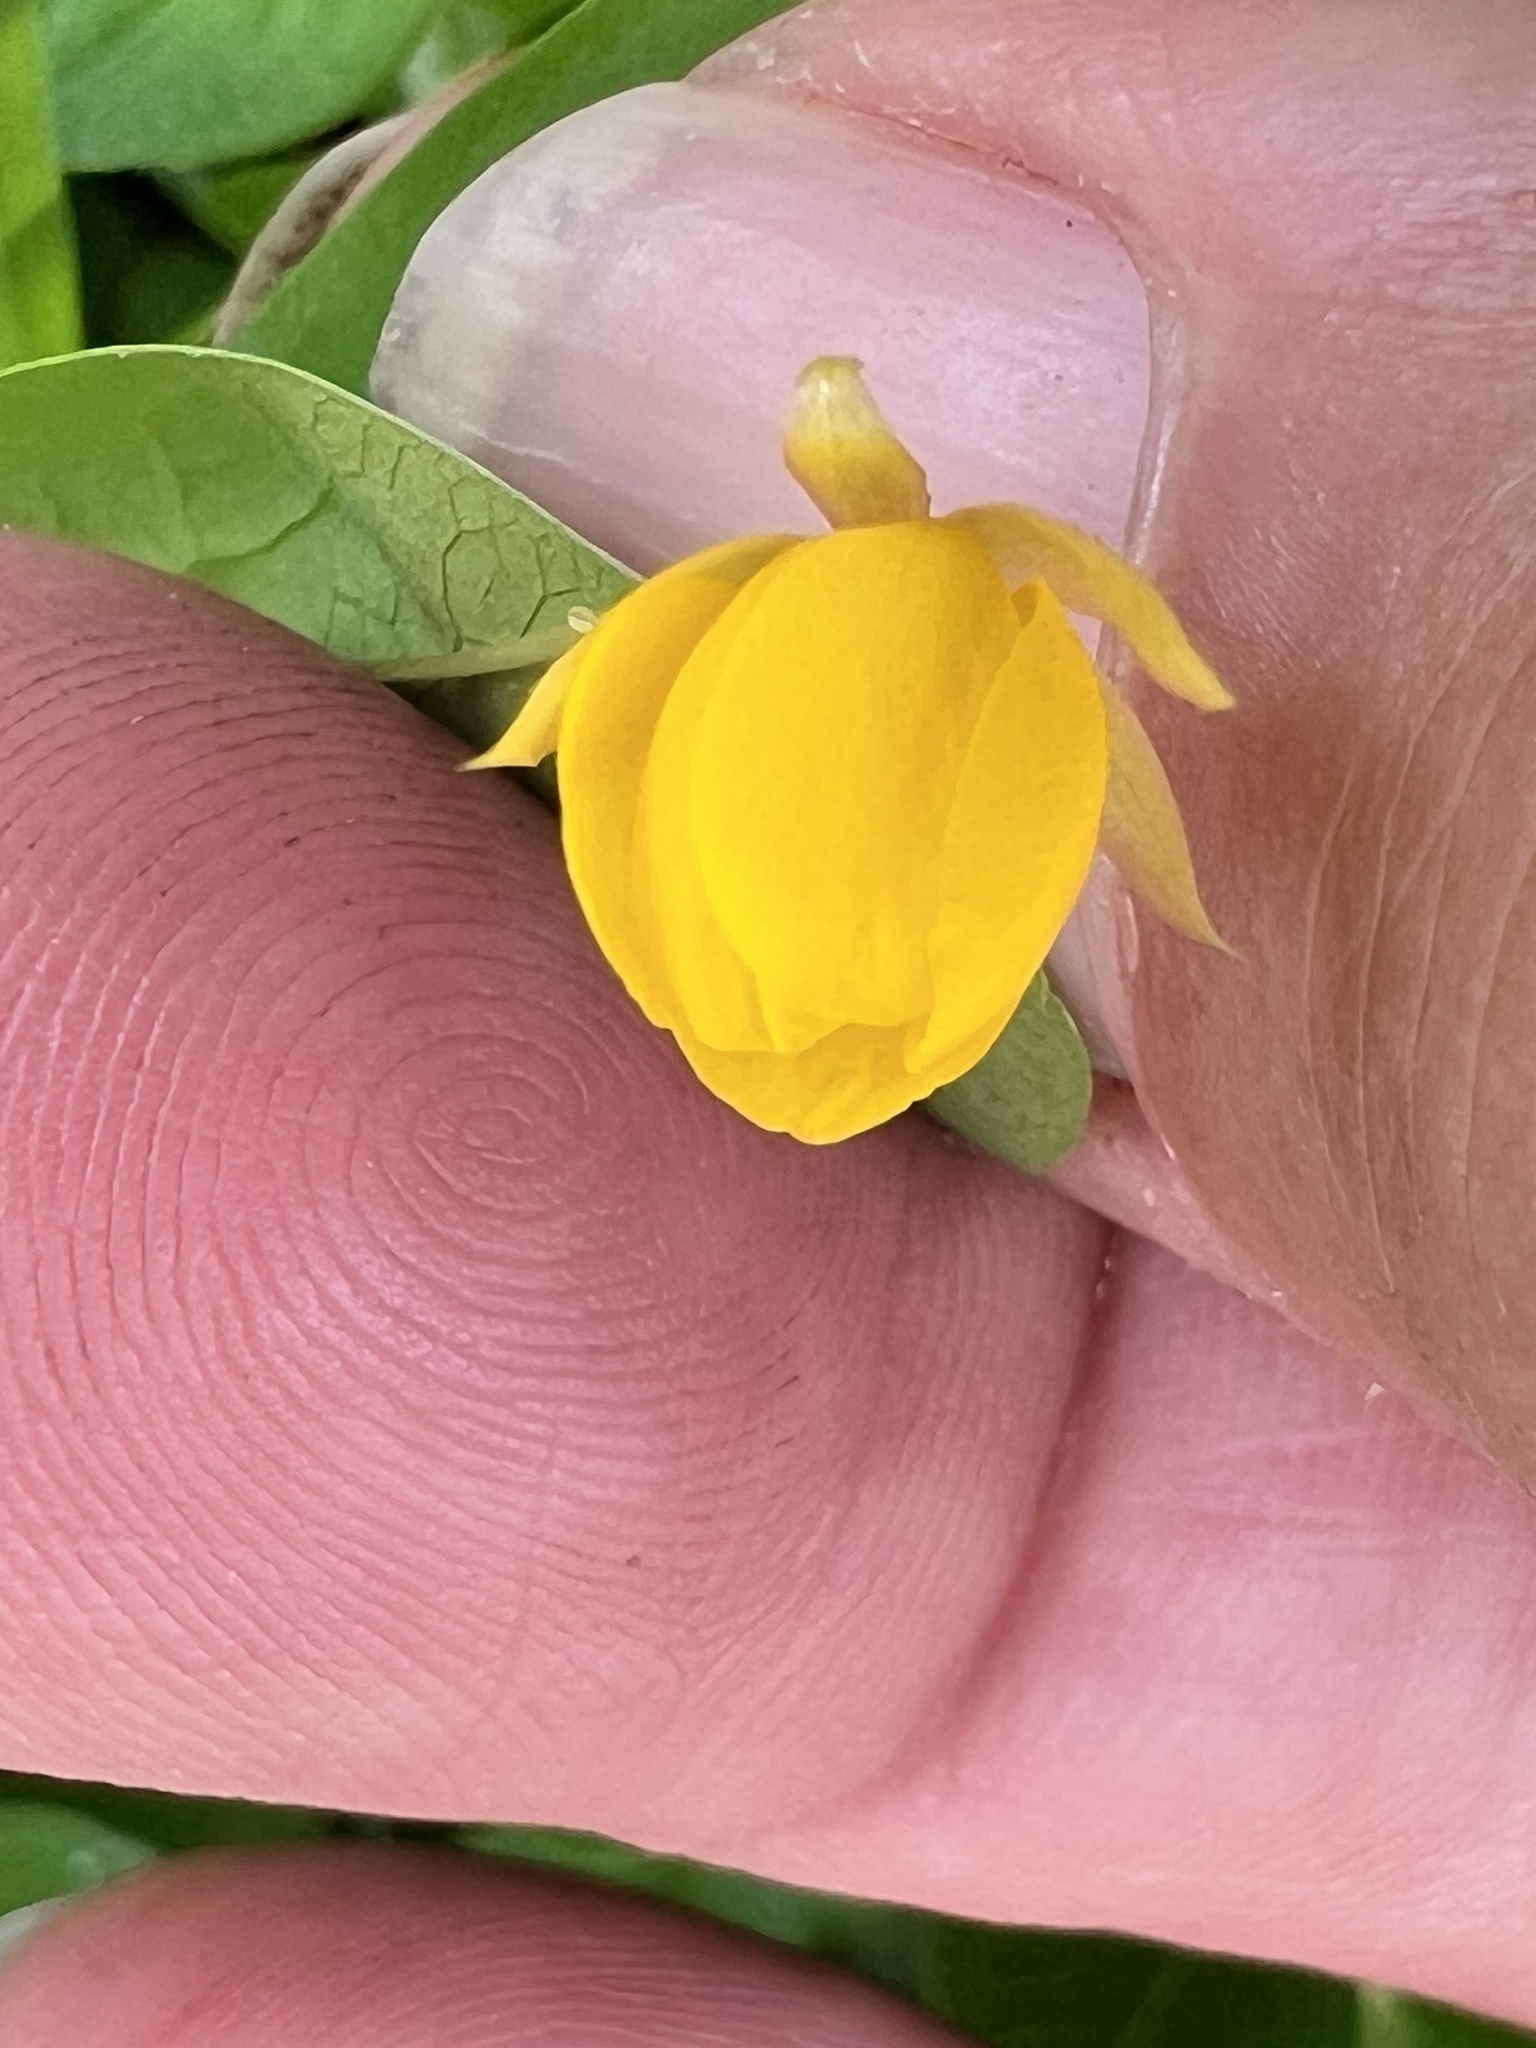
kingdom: Plantae
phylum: Tracheophyta
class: Magnoliopsida
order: Fabales
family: Fabaceae
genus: Chamaecrista
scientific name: Chamaecrista rotundifolia
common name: Round-leaf cassia
